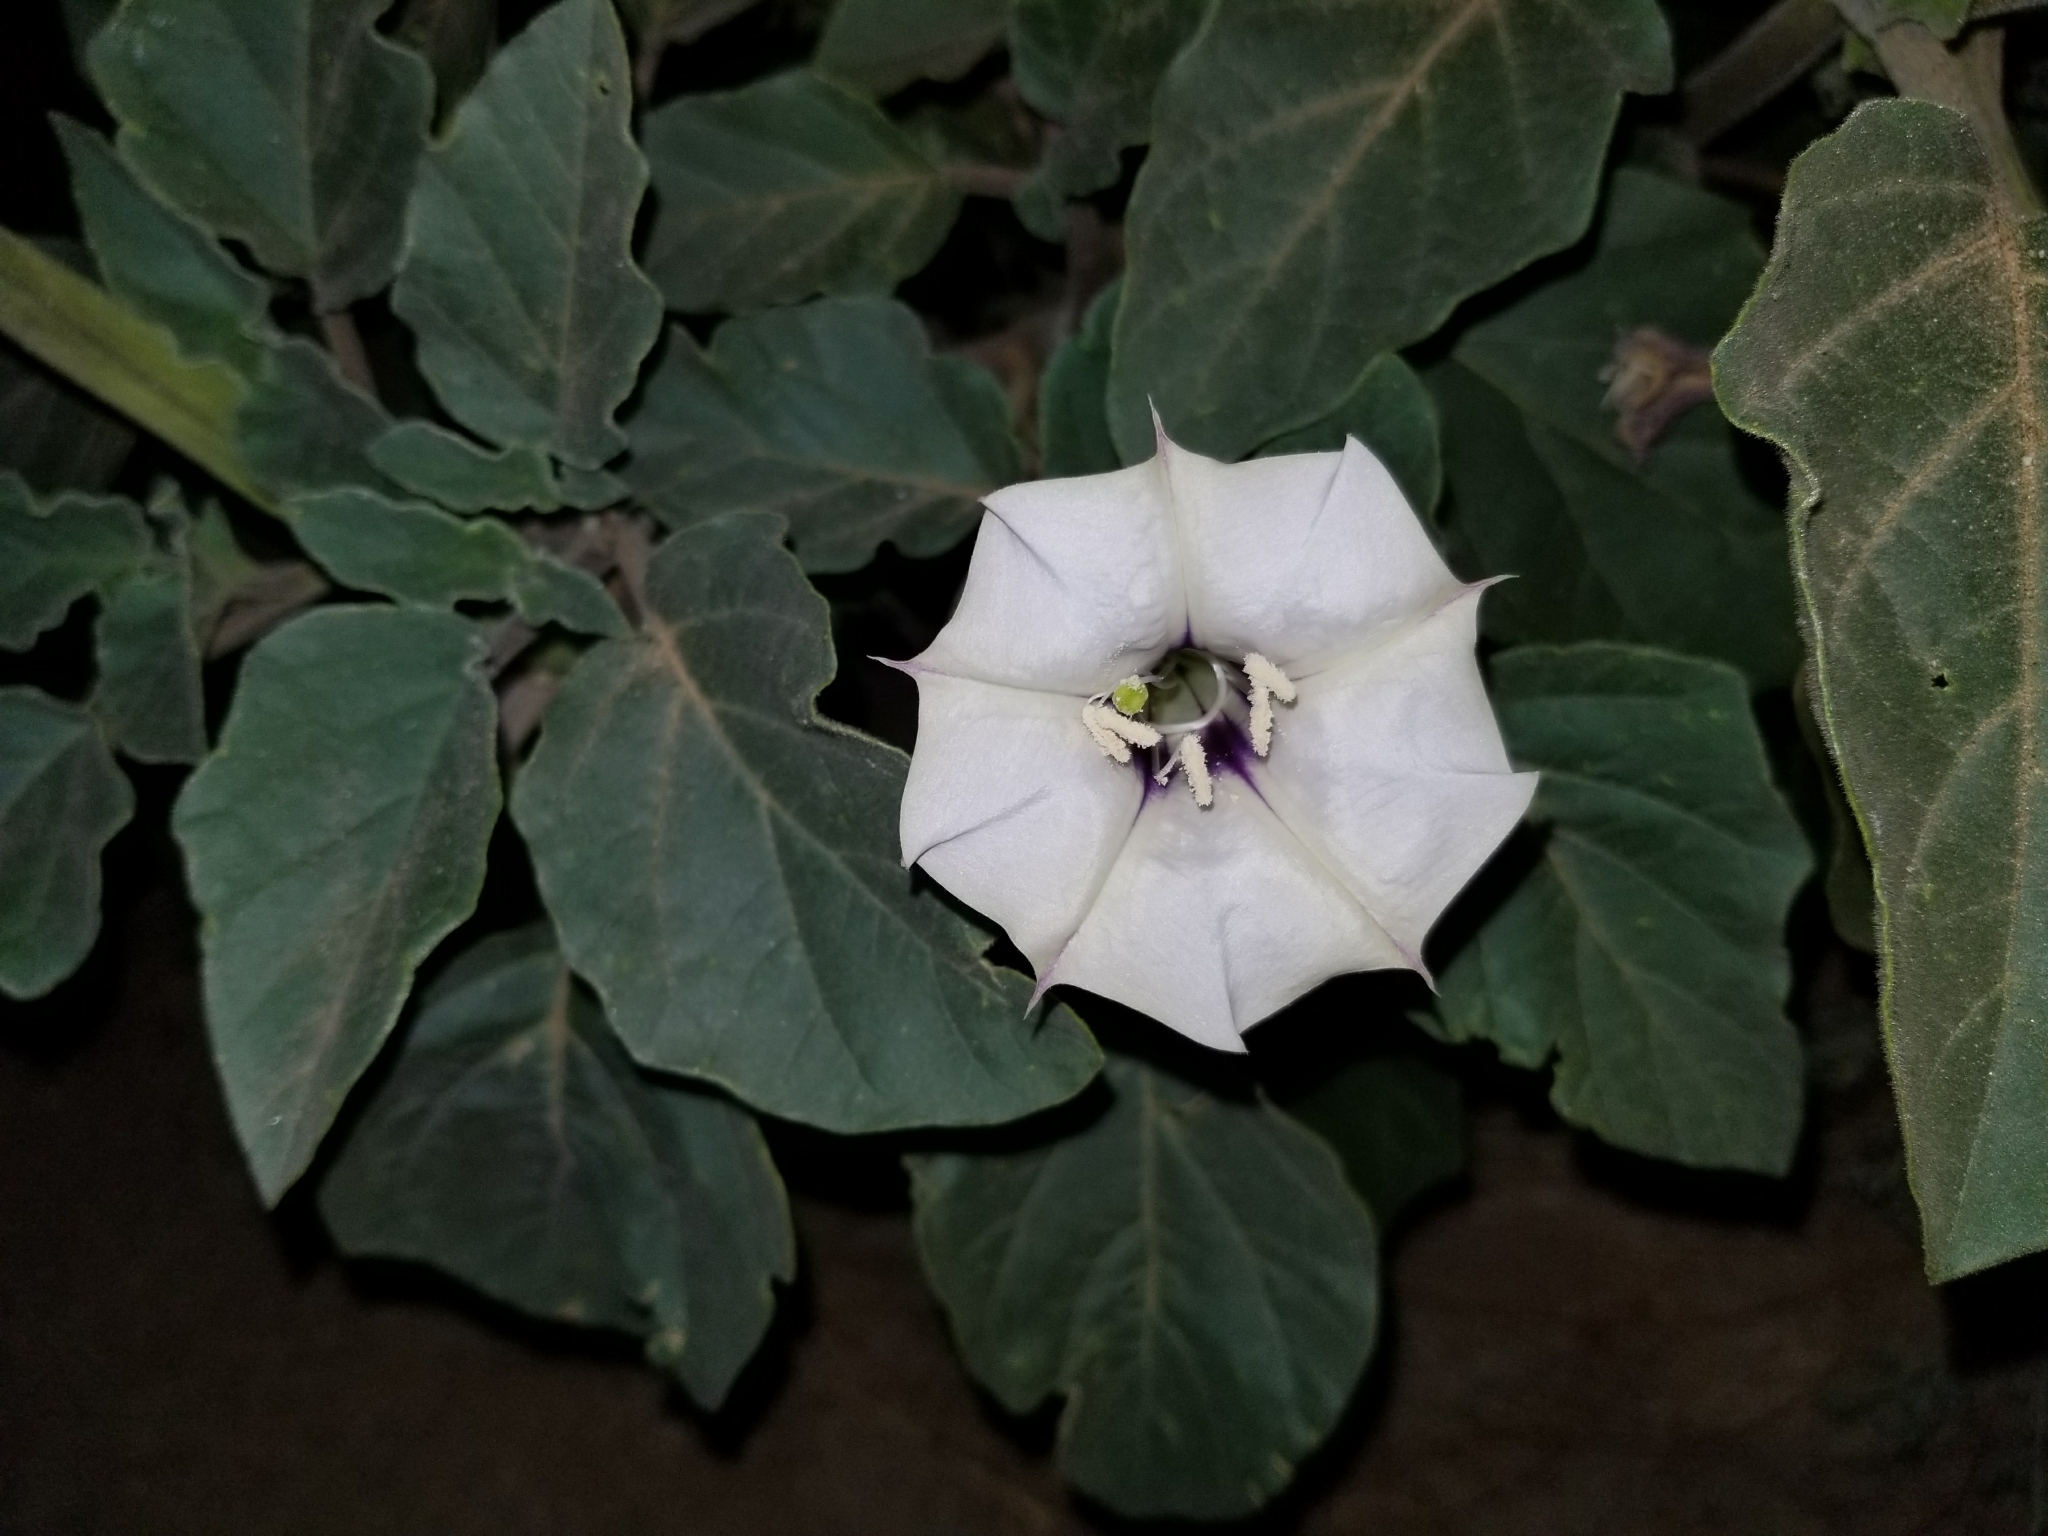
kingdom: Plantae
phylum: Tracheophyta
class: Magnoliopsida
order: Solanales
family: Solanaceae
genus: Datura
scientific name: Datura discolor
